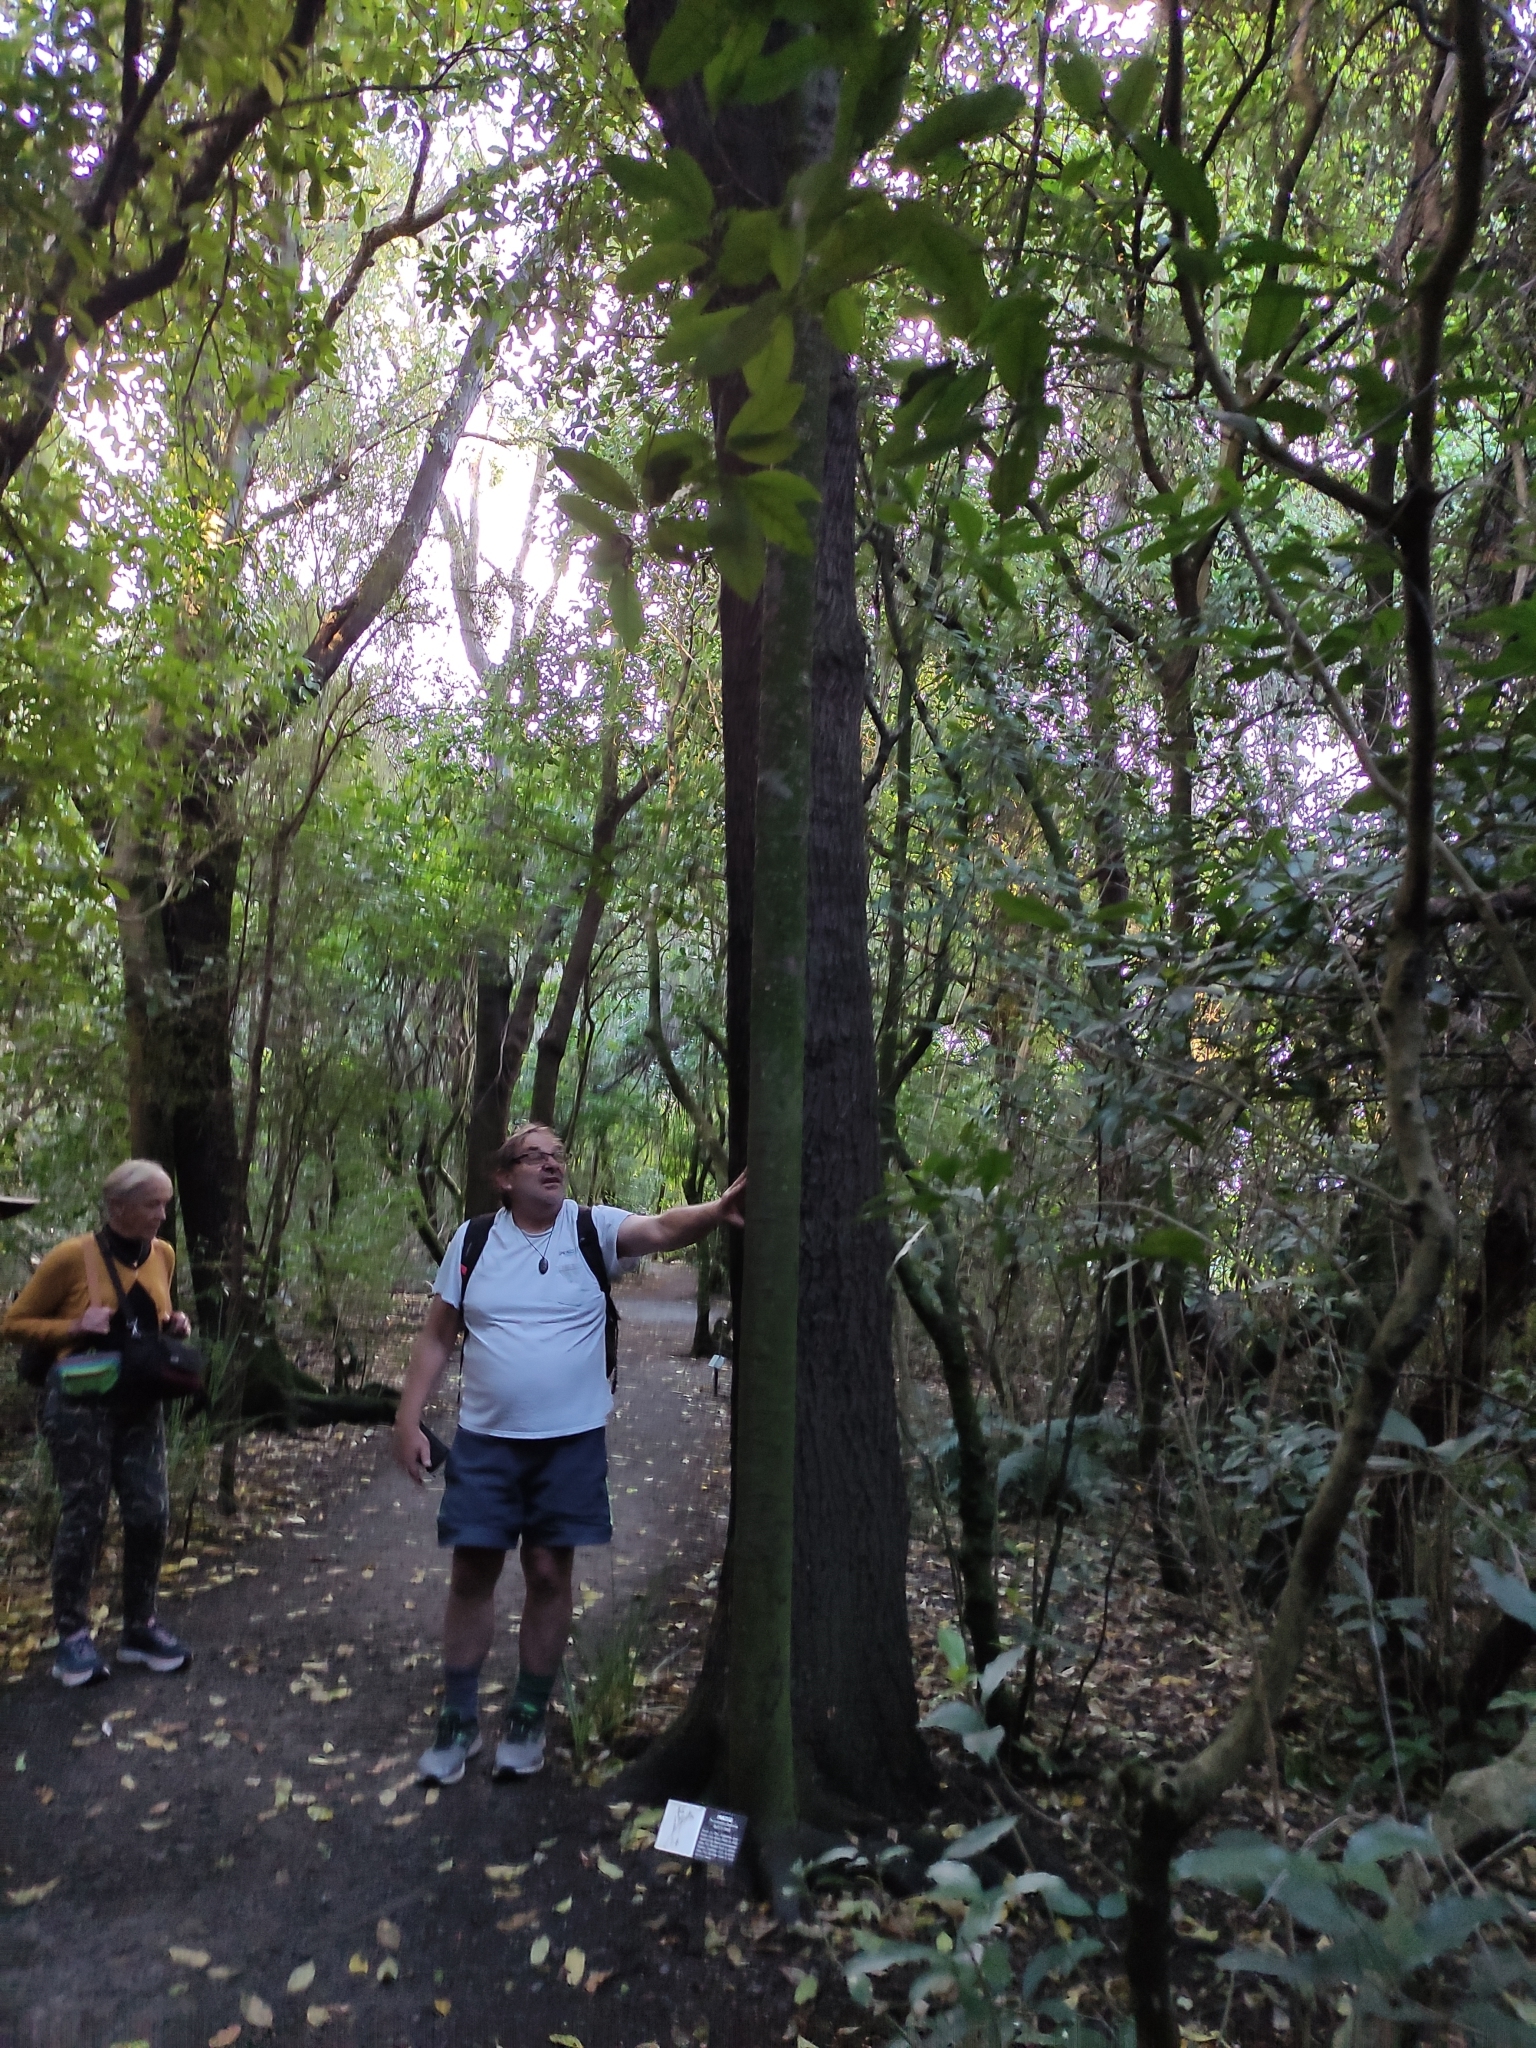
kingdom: Plantae
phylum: Tracheophyta
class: Pinopsida
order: Pinales
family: Podocarpaceae
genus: Prumnopitys
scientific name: Prumnopitys taxifolia
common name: Matai
